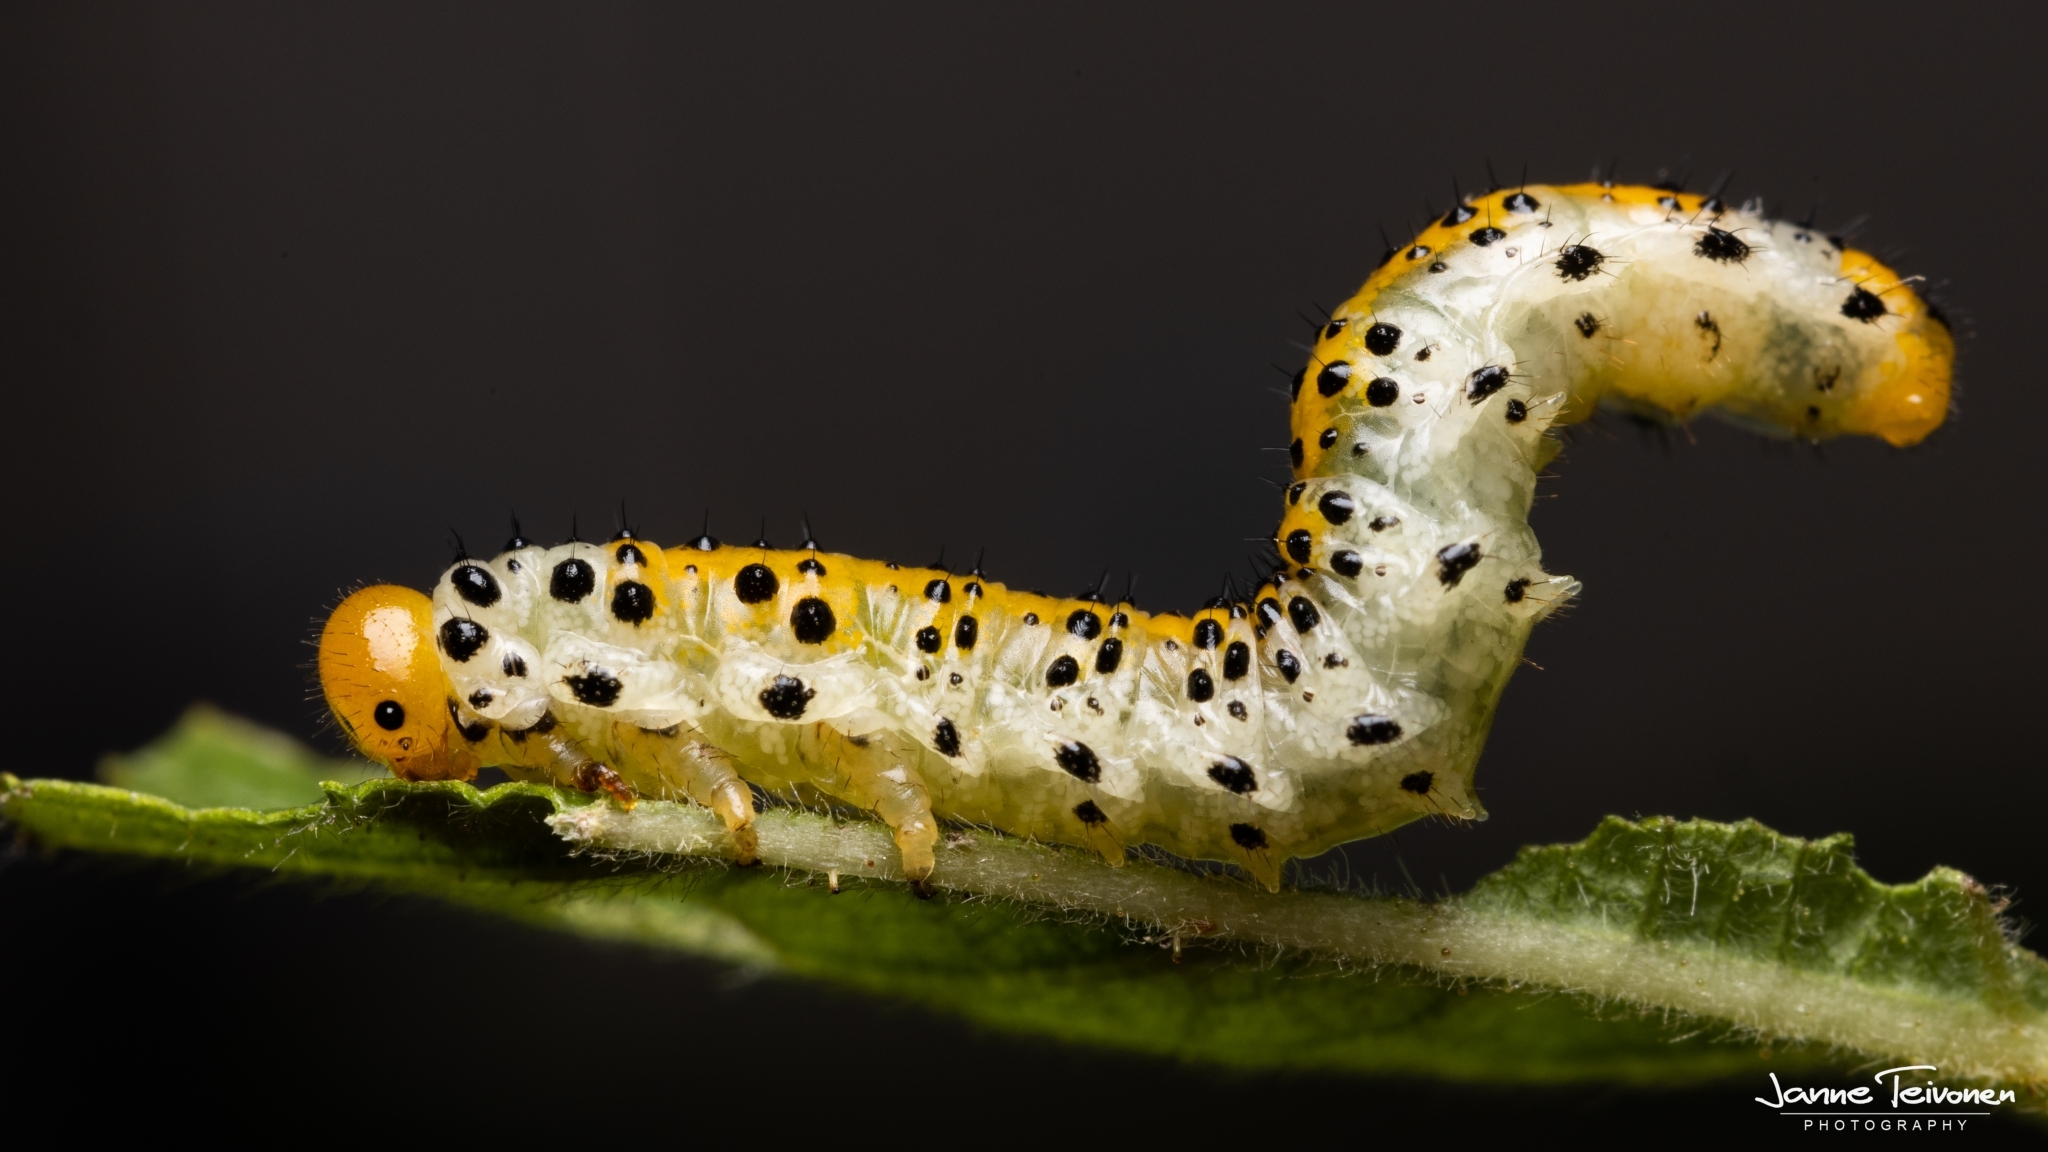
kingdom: Animalia
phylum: Arthropoda
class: Insecta
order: Hymenoptera
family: Argidae
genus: Arge
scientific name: Arge ochropus
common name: Argid sawfly
